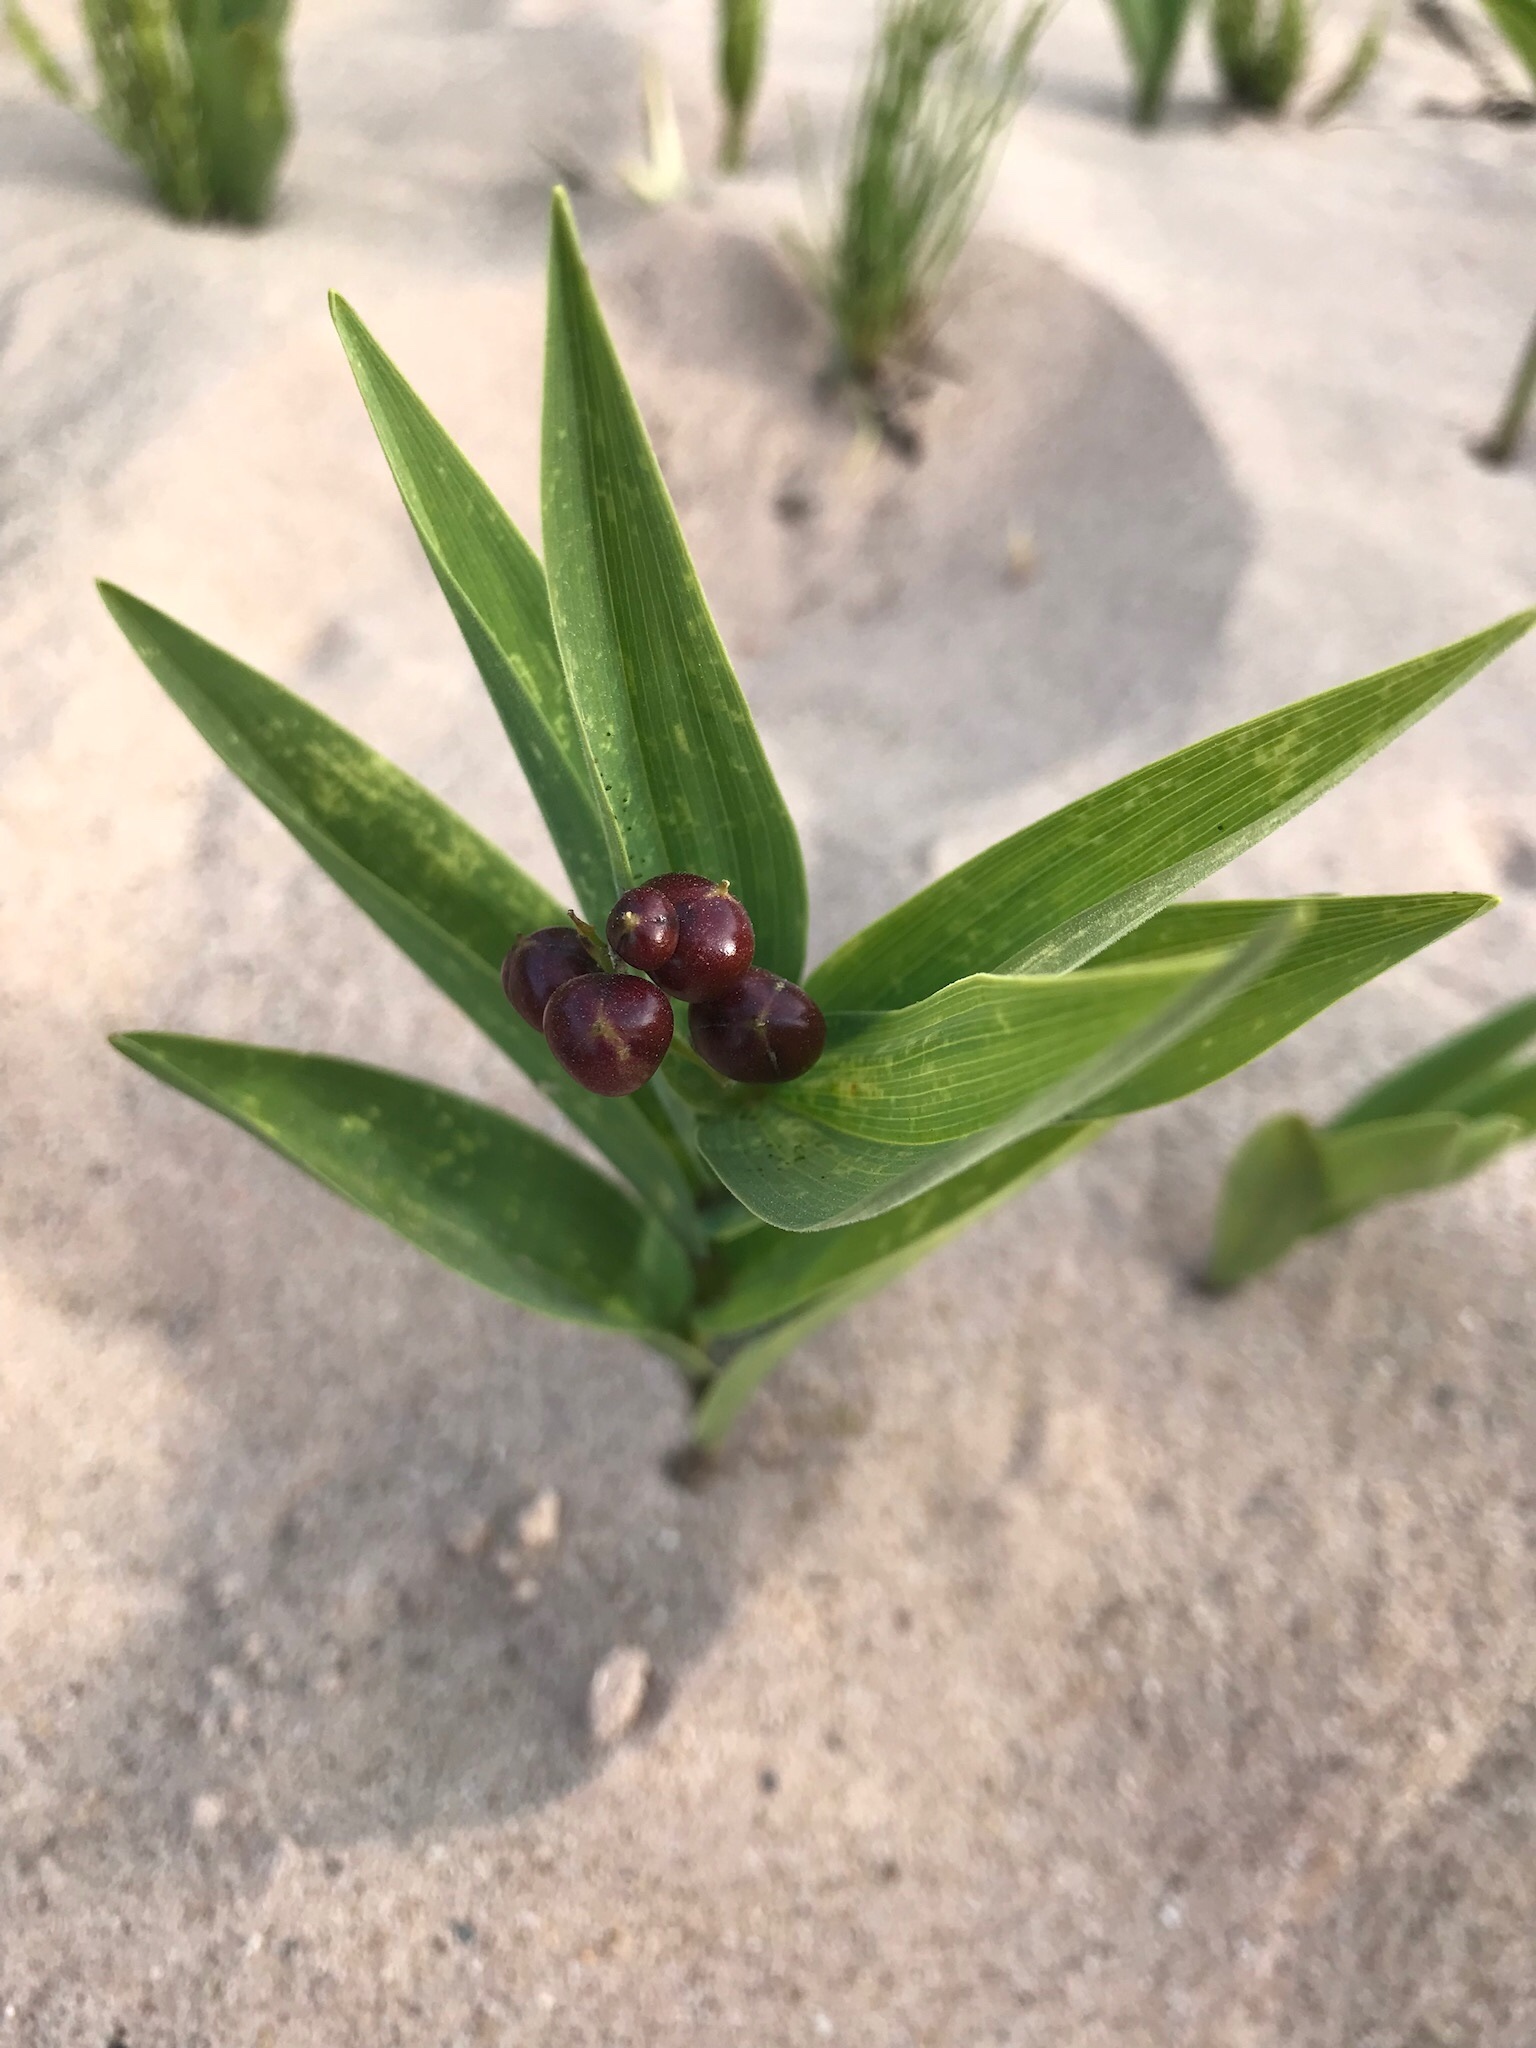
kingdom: Plantae
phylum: Tracheophyta
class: Liliopsida
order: Asparagales
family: Asparagaceae
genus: Maianthemum
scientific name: Maianthemum stellatum
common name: Little false solomon's seal
